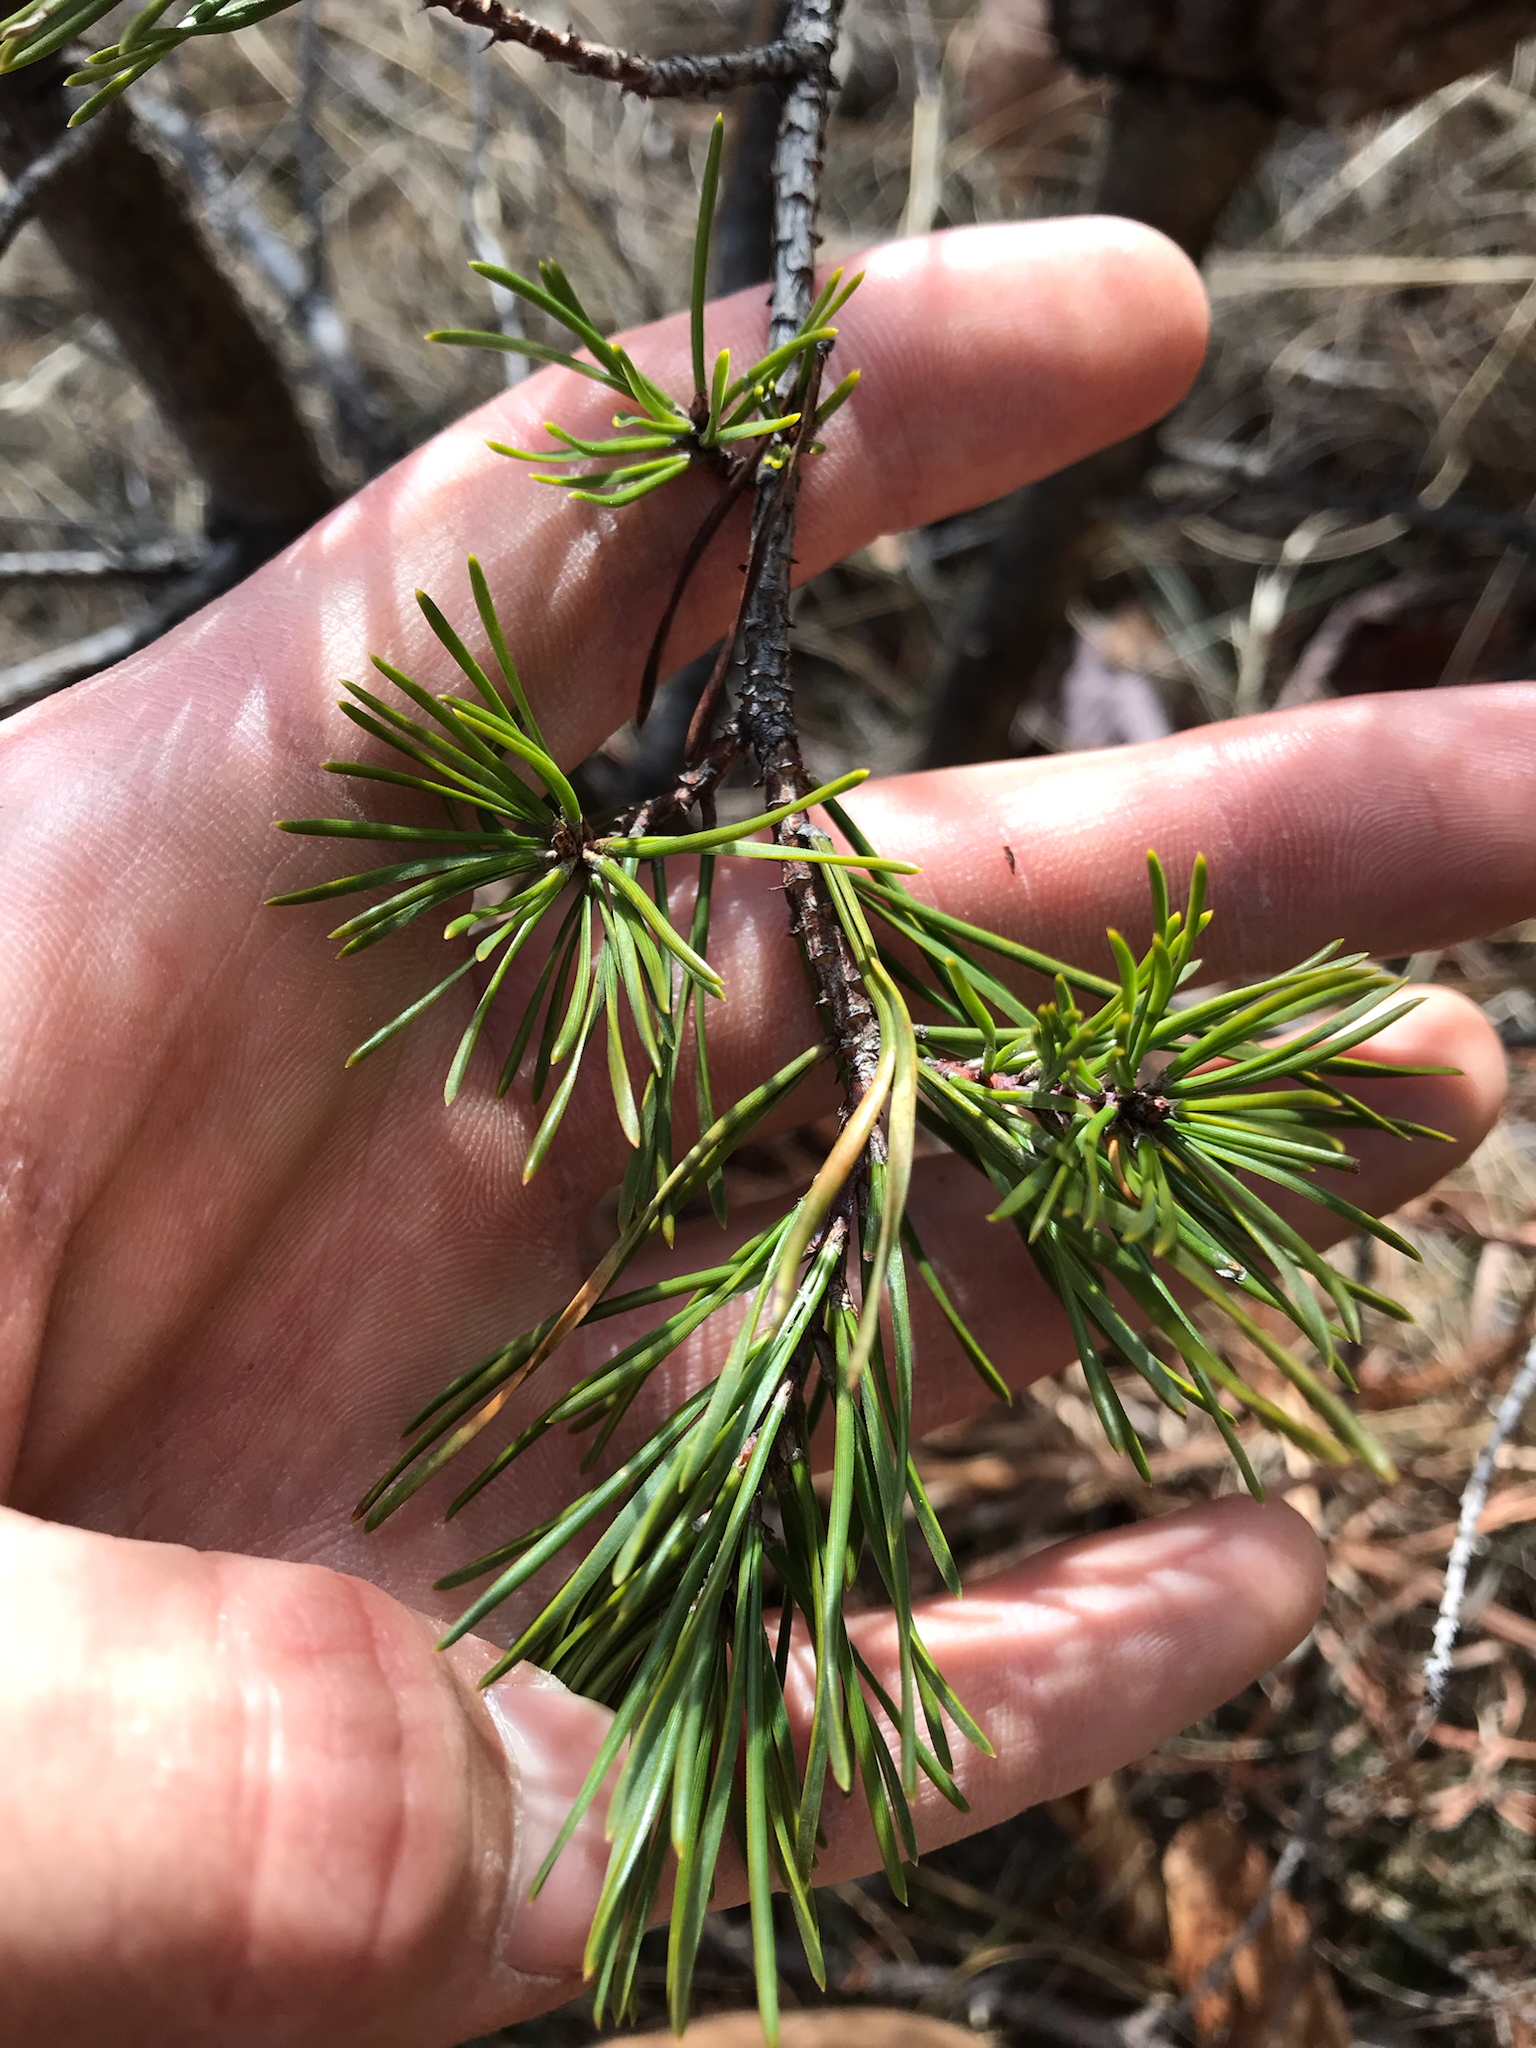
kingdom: Plantae
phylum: Tracheophyta
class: Pinopsida
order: Pinales
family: Pinaceae
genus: Pinus
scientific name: Pinus virginiana
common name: Scrub pine
